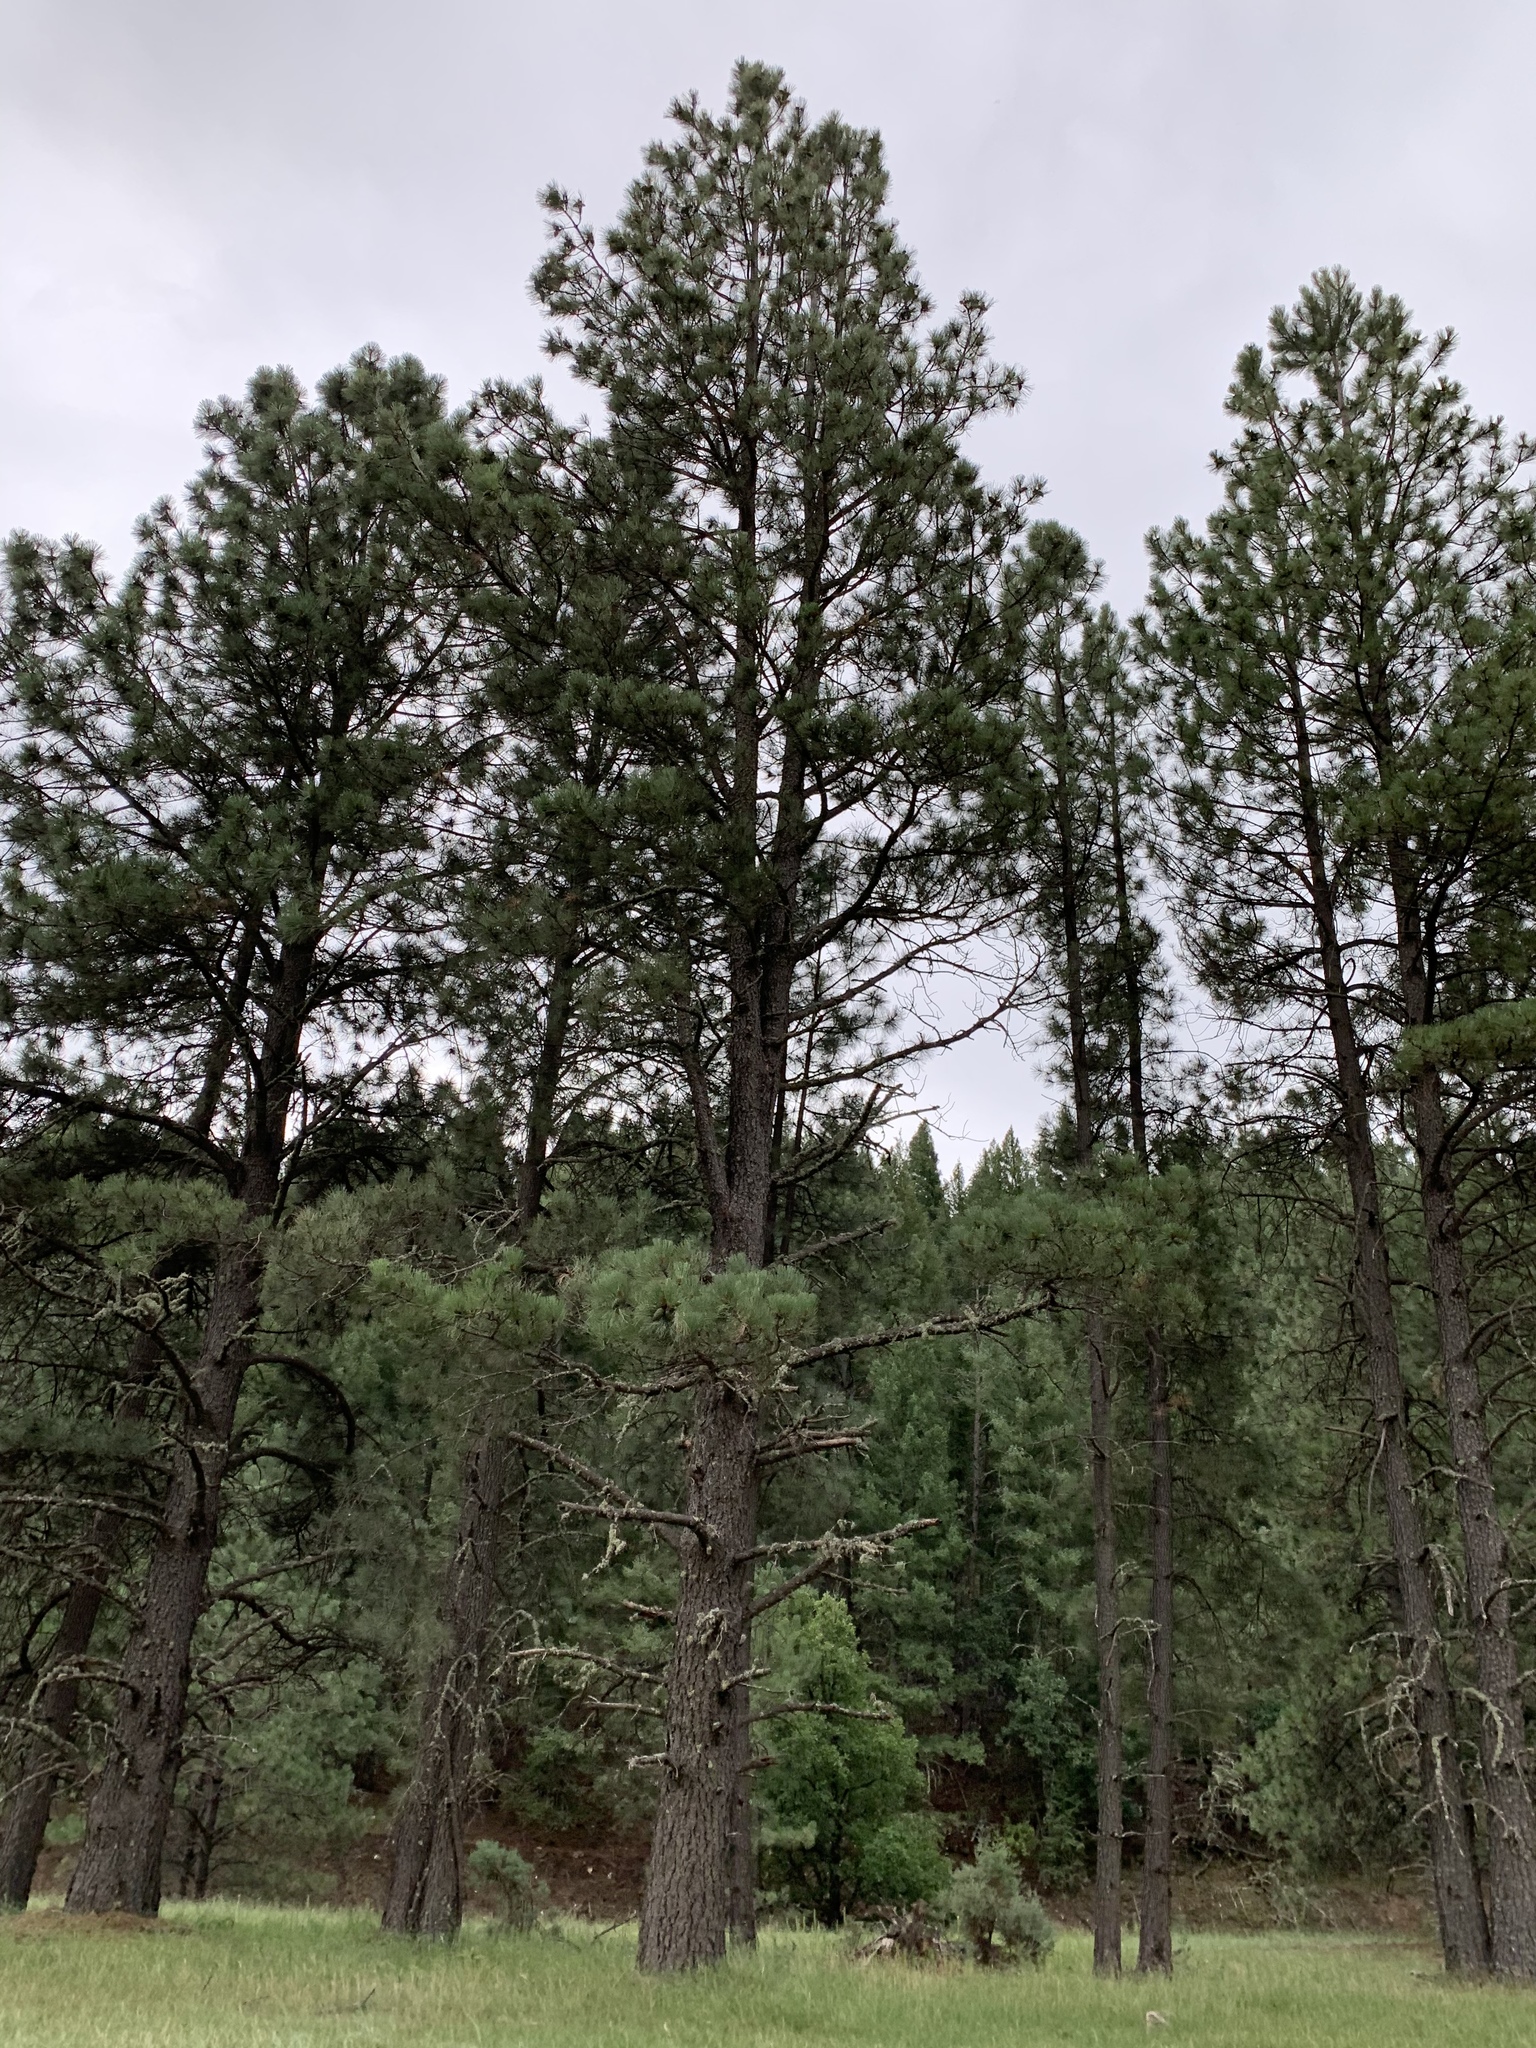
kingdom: Plantae
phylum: Tracheophyta
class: Pinopsida
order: Pinales
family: Pinaceae
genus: Pinus
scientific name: Pinus ponderosa
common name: Western yellow-pine
